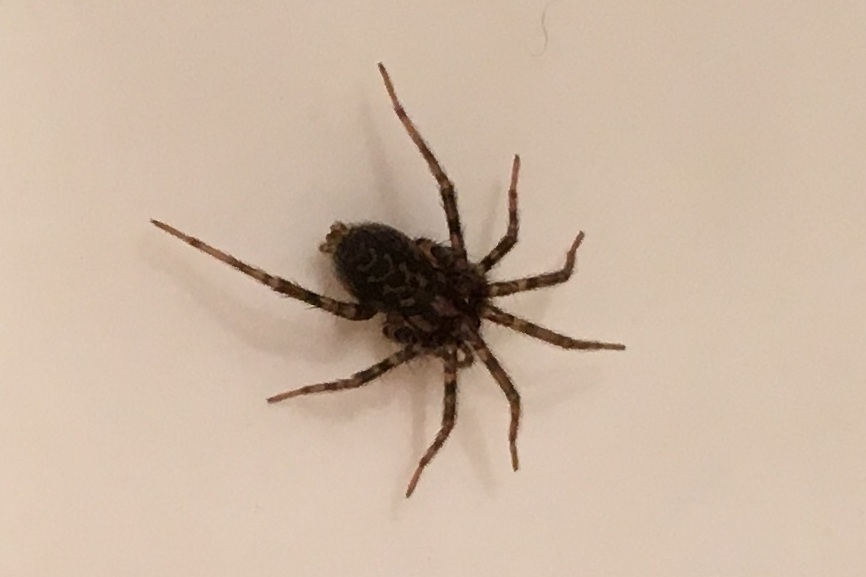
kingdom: Animalia
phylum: Arthropoda
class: Arachnida
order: Araneae
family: Agelenidae
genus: Tegenaria
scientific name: Tegenaria domestica
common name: Barn funnel weaver
